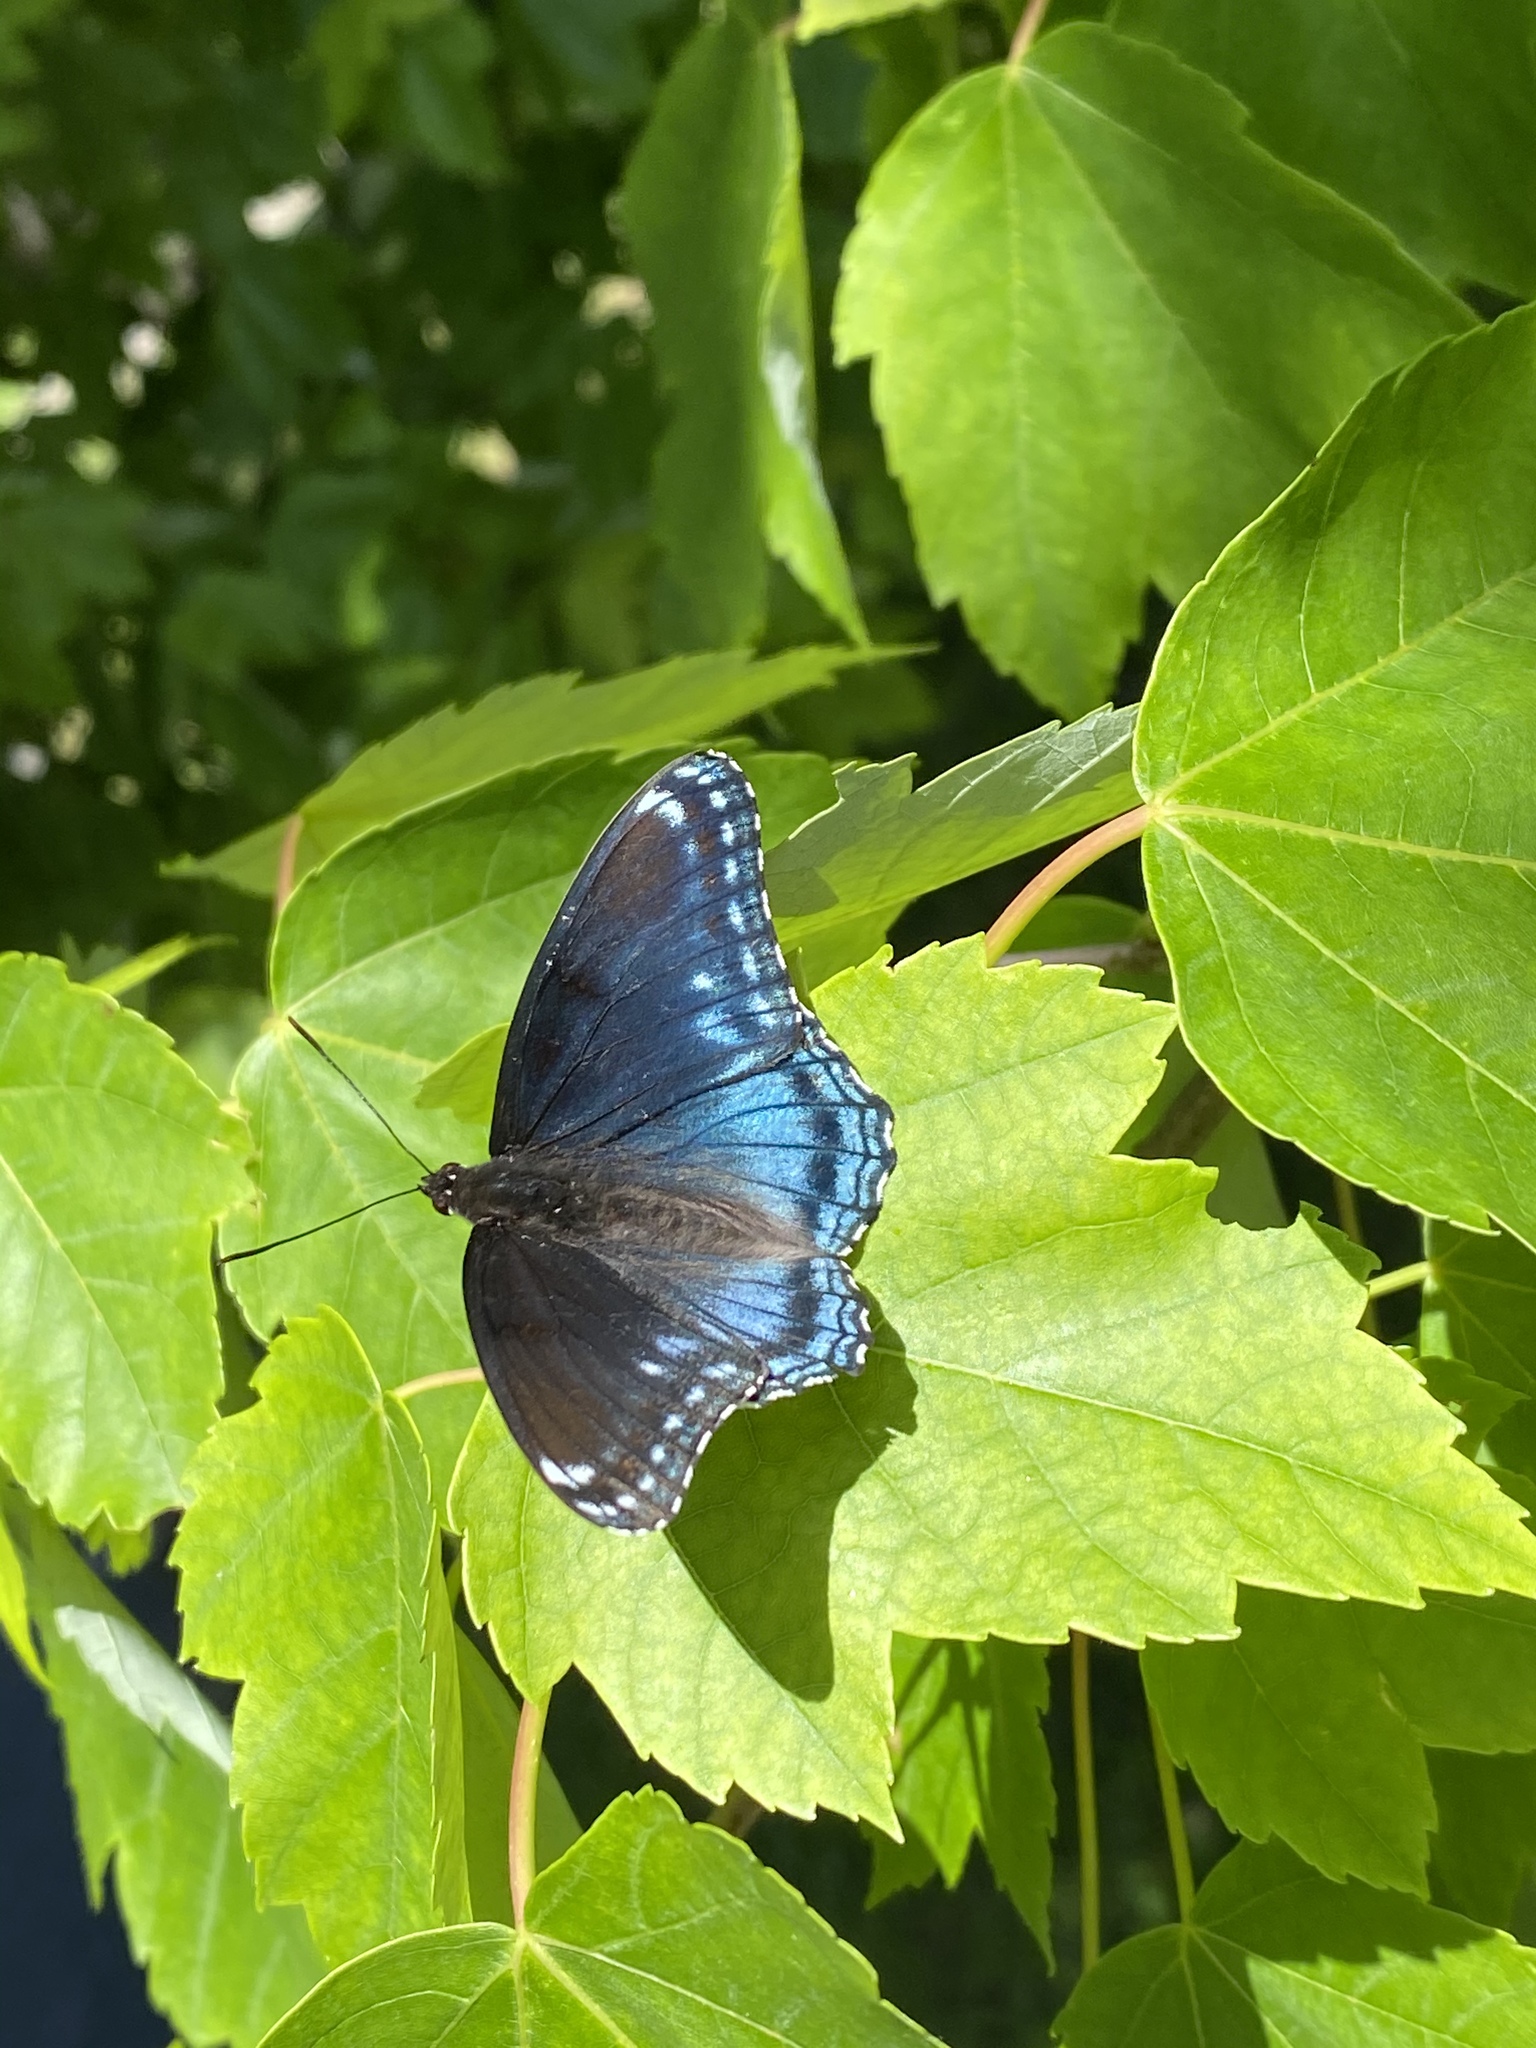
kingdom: Animalia
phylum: Arthropoda
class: Insecta
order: Lepidoptera
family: Nymphalidae
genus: Limenitis
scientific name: Limenitis arthemis
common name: Red-spotted admiral
